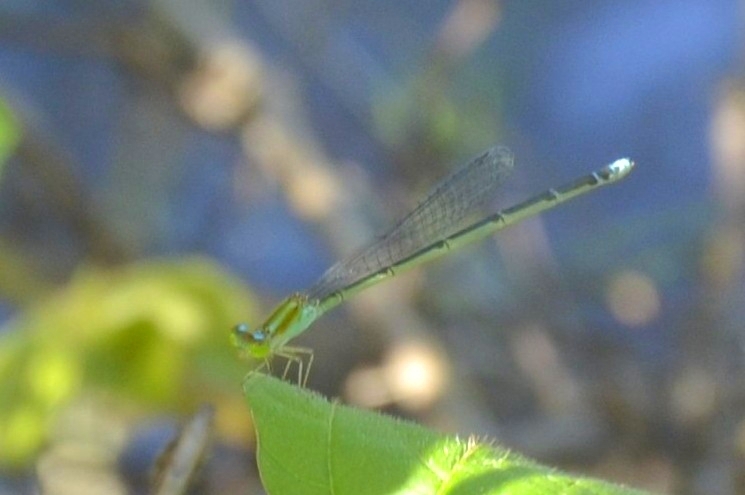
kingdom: Animalia
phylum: Arthropoda
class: Insecta
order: Odonata
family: Coenagrionidae
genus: Pseudagrion
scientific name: Pseudagrion microcephalum
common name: Blue riverdamsel
